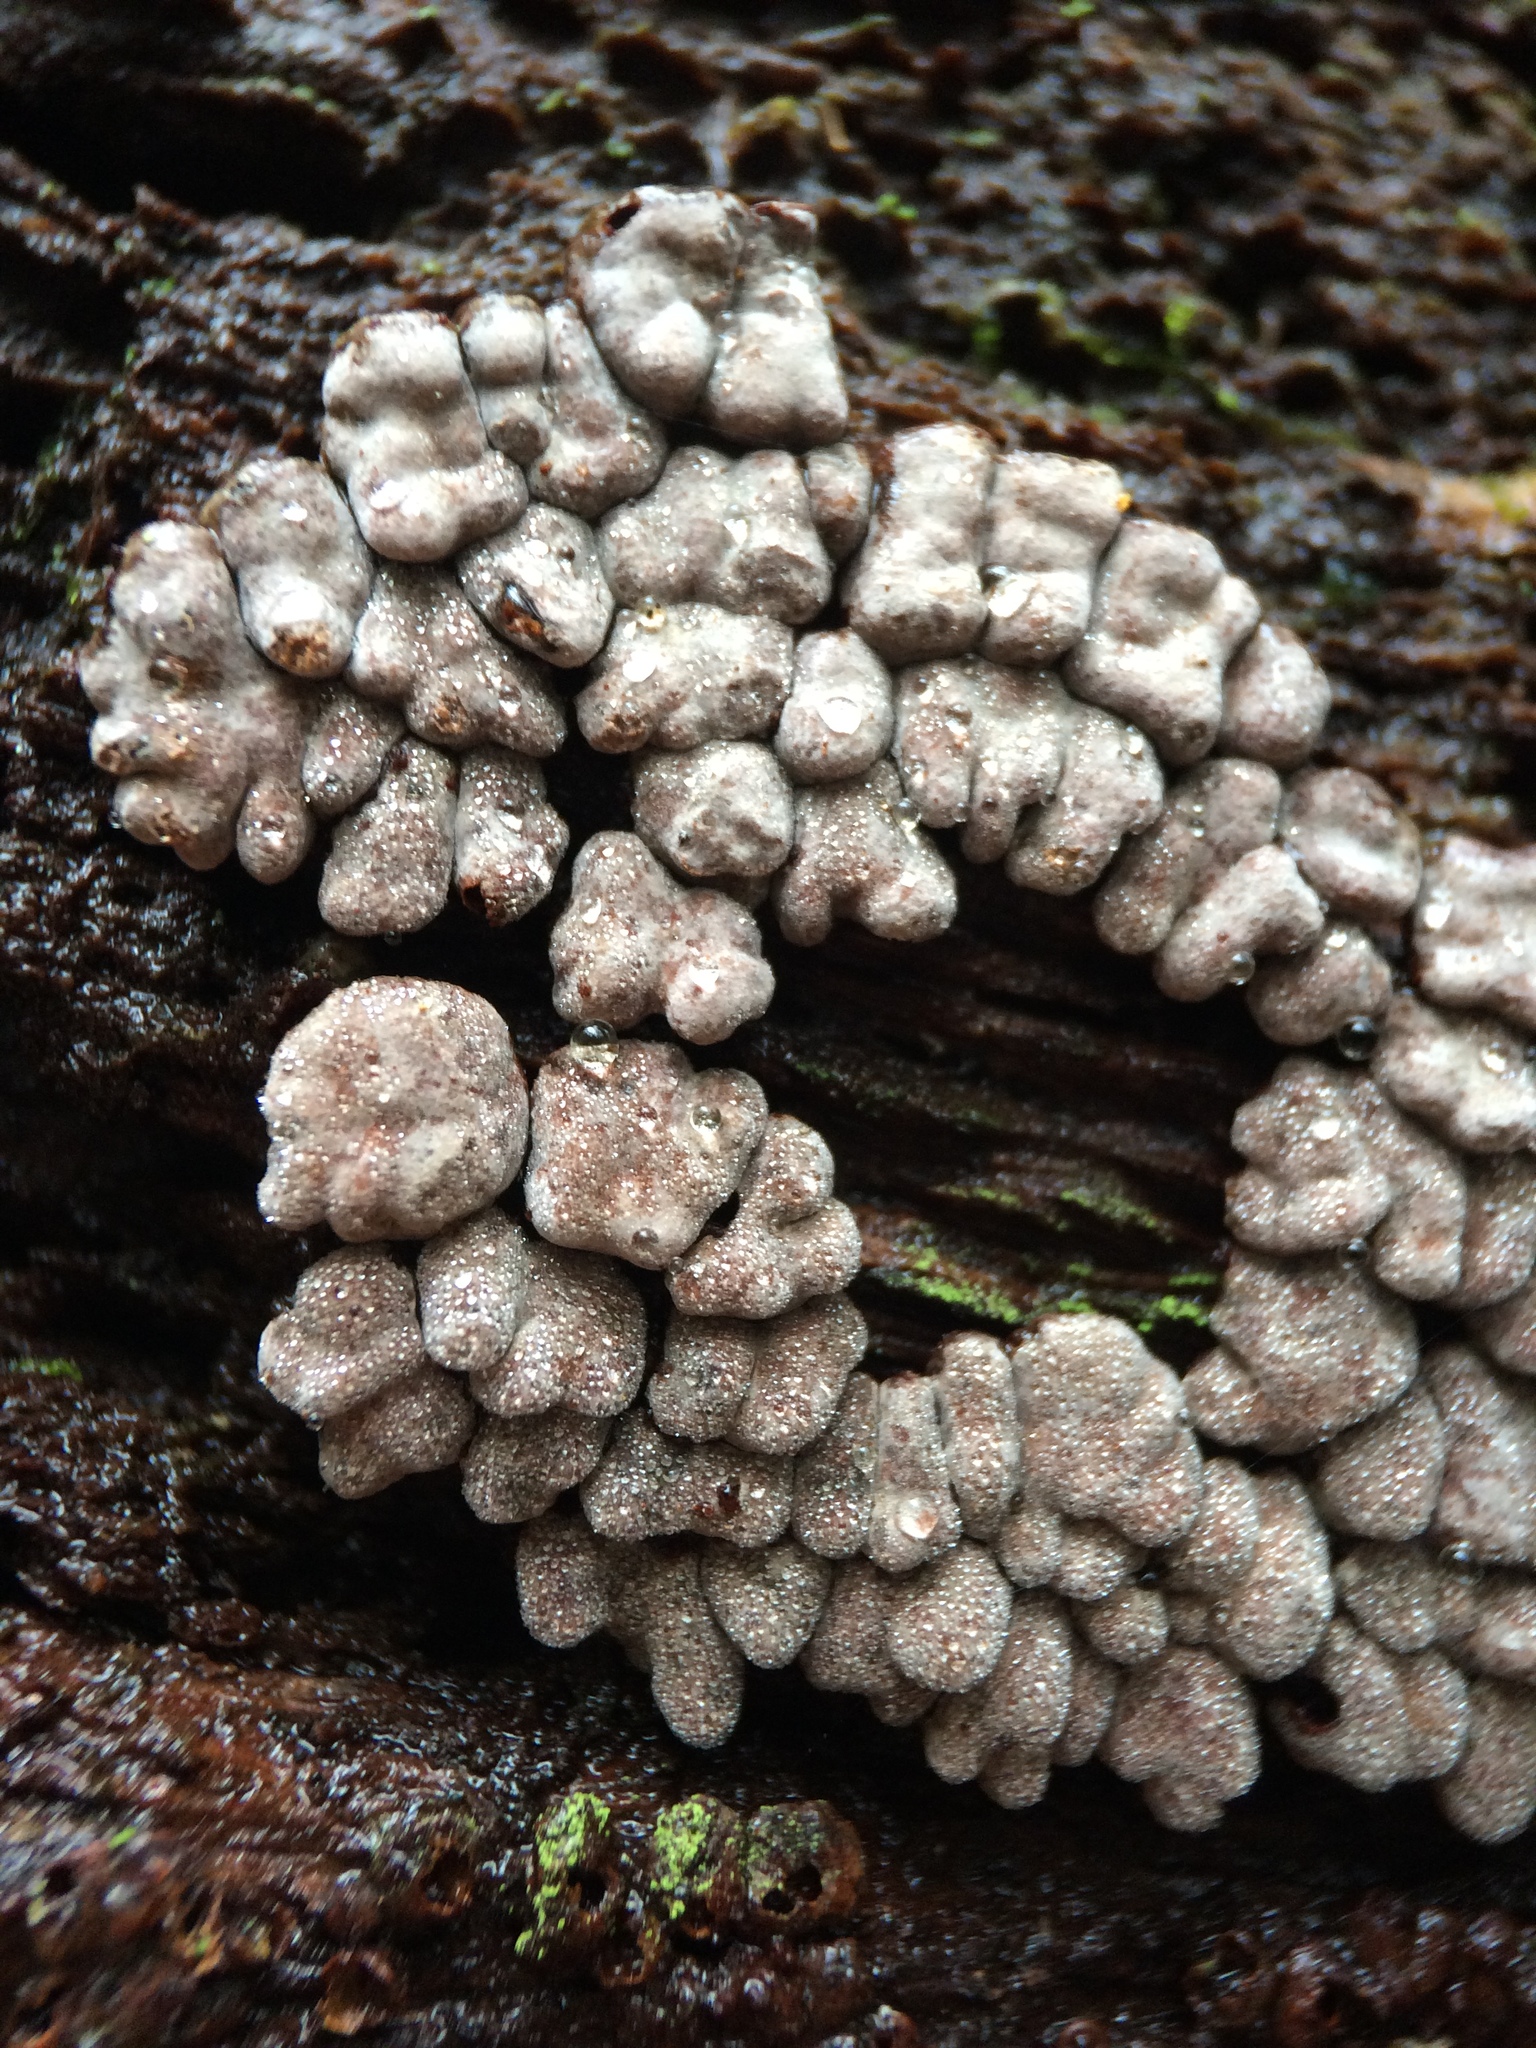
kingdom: Fungi
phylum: Basidiomycota
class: Agaricomycetes
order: Russulales
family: Stereaceae
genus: Xylobolus
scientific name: Xylobolus frustulatus
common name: Ceramic parchment
